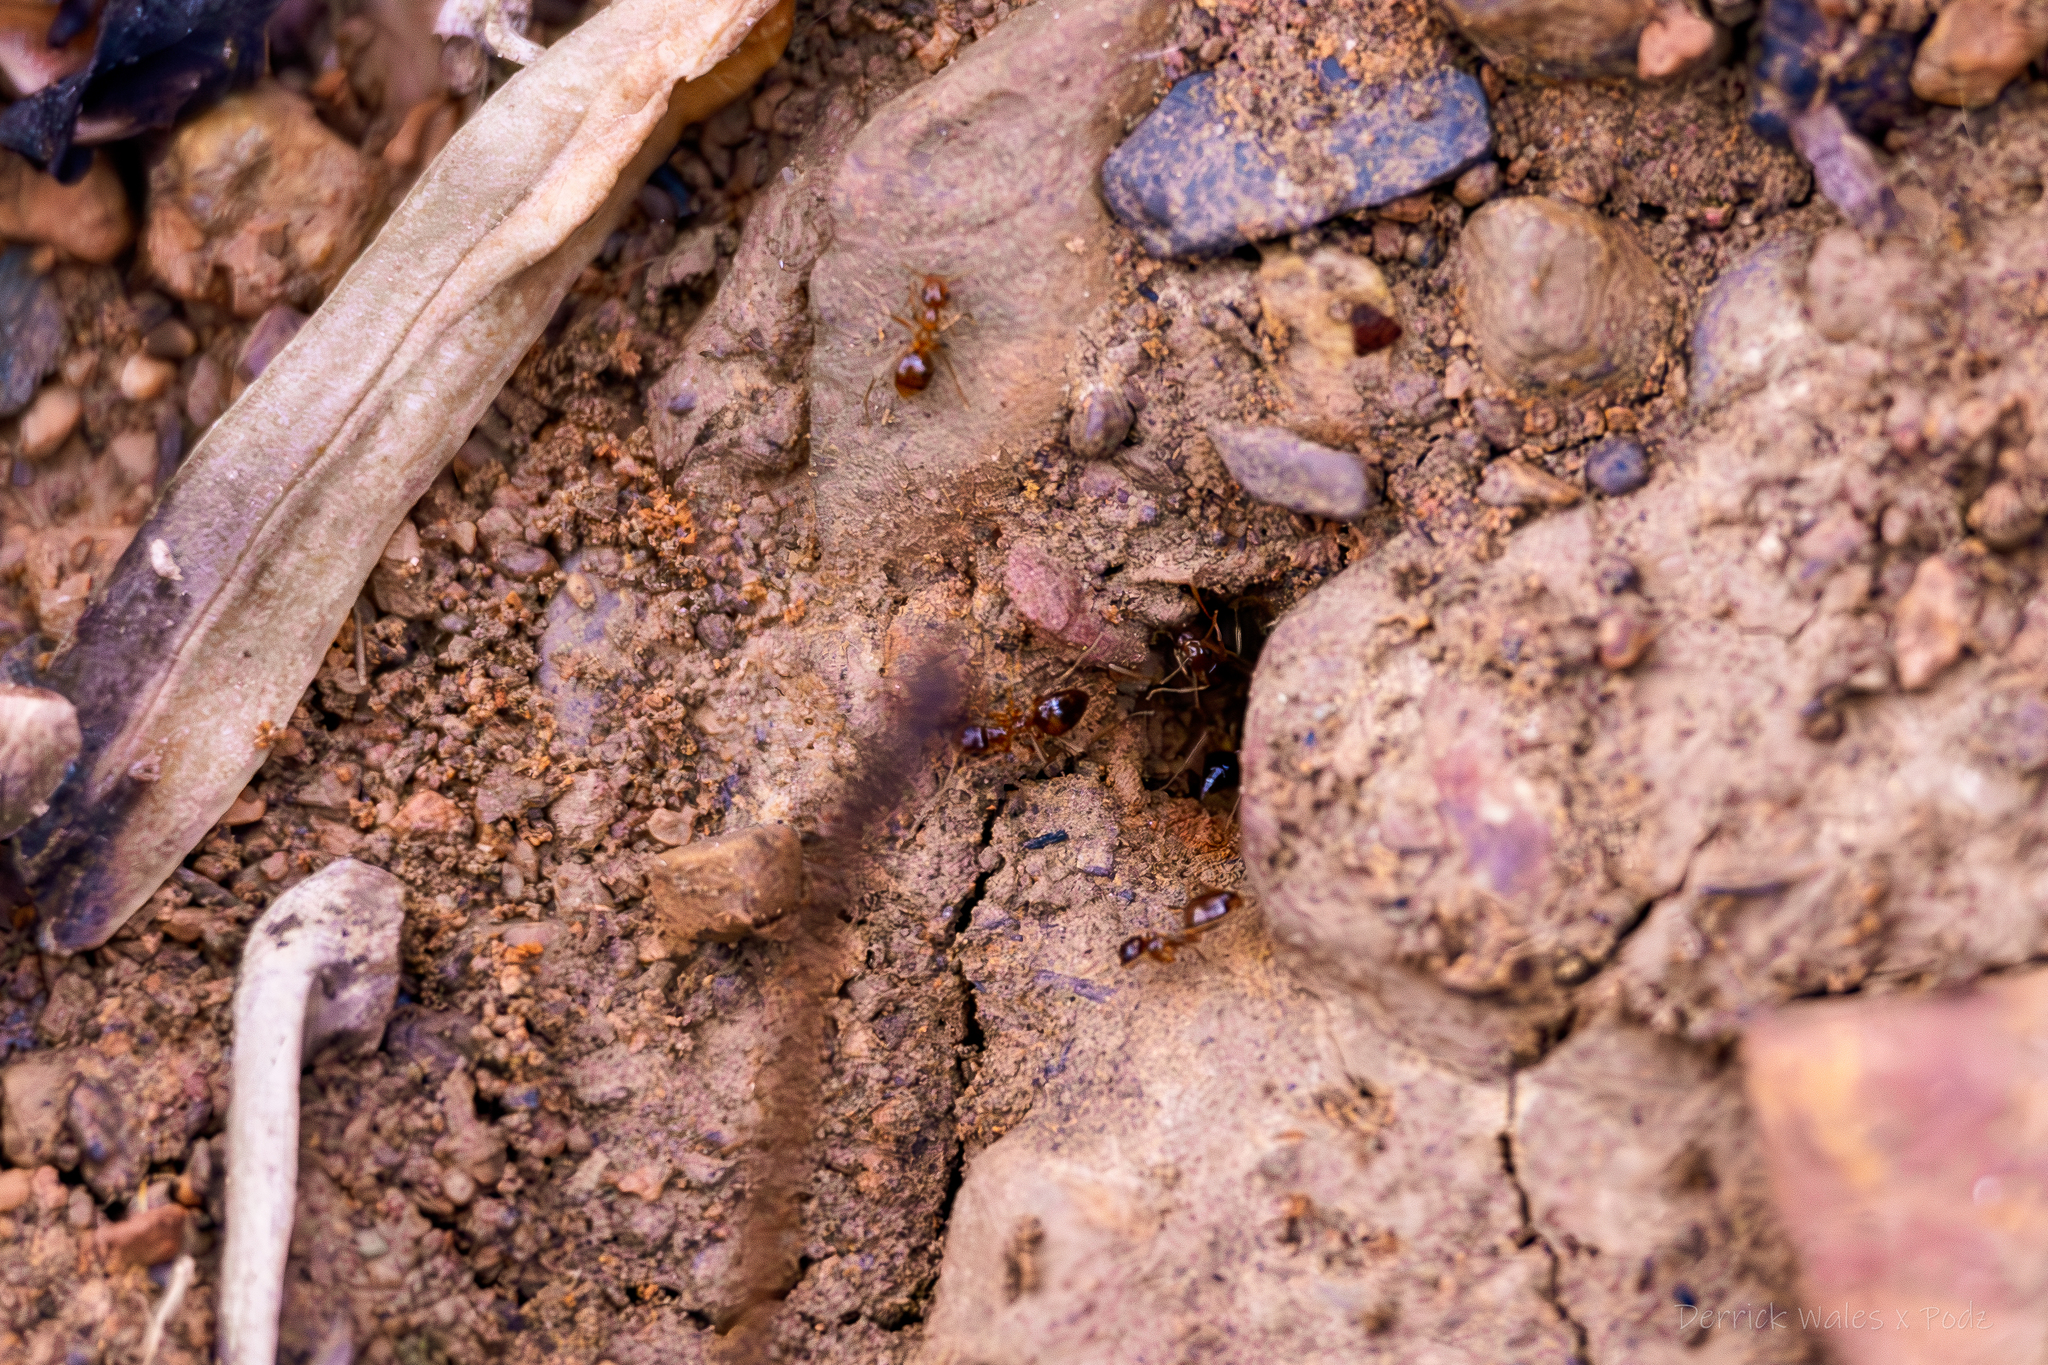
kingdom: Animalia
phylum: Arthropoda
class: Insecta
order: Hymenoptera
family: Formicidae
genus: Prenolepis
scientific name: Prenolepis imparis
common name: Small honey ant
